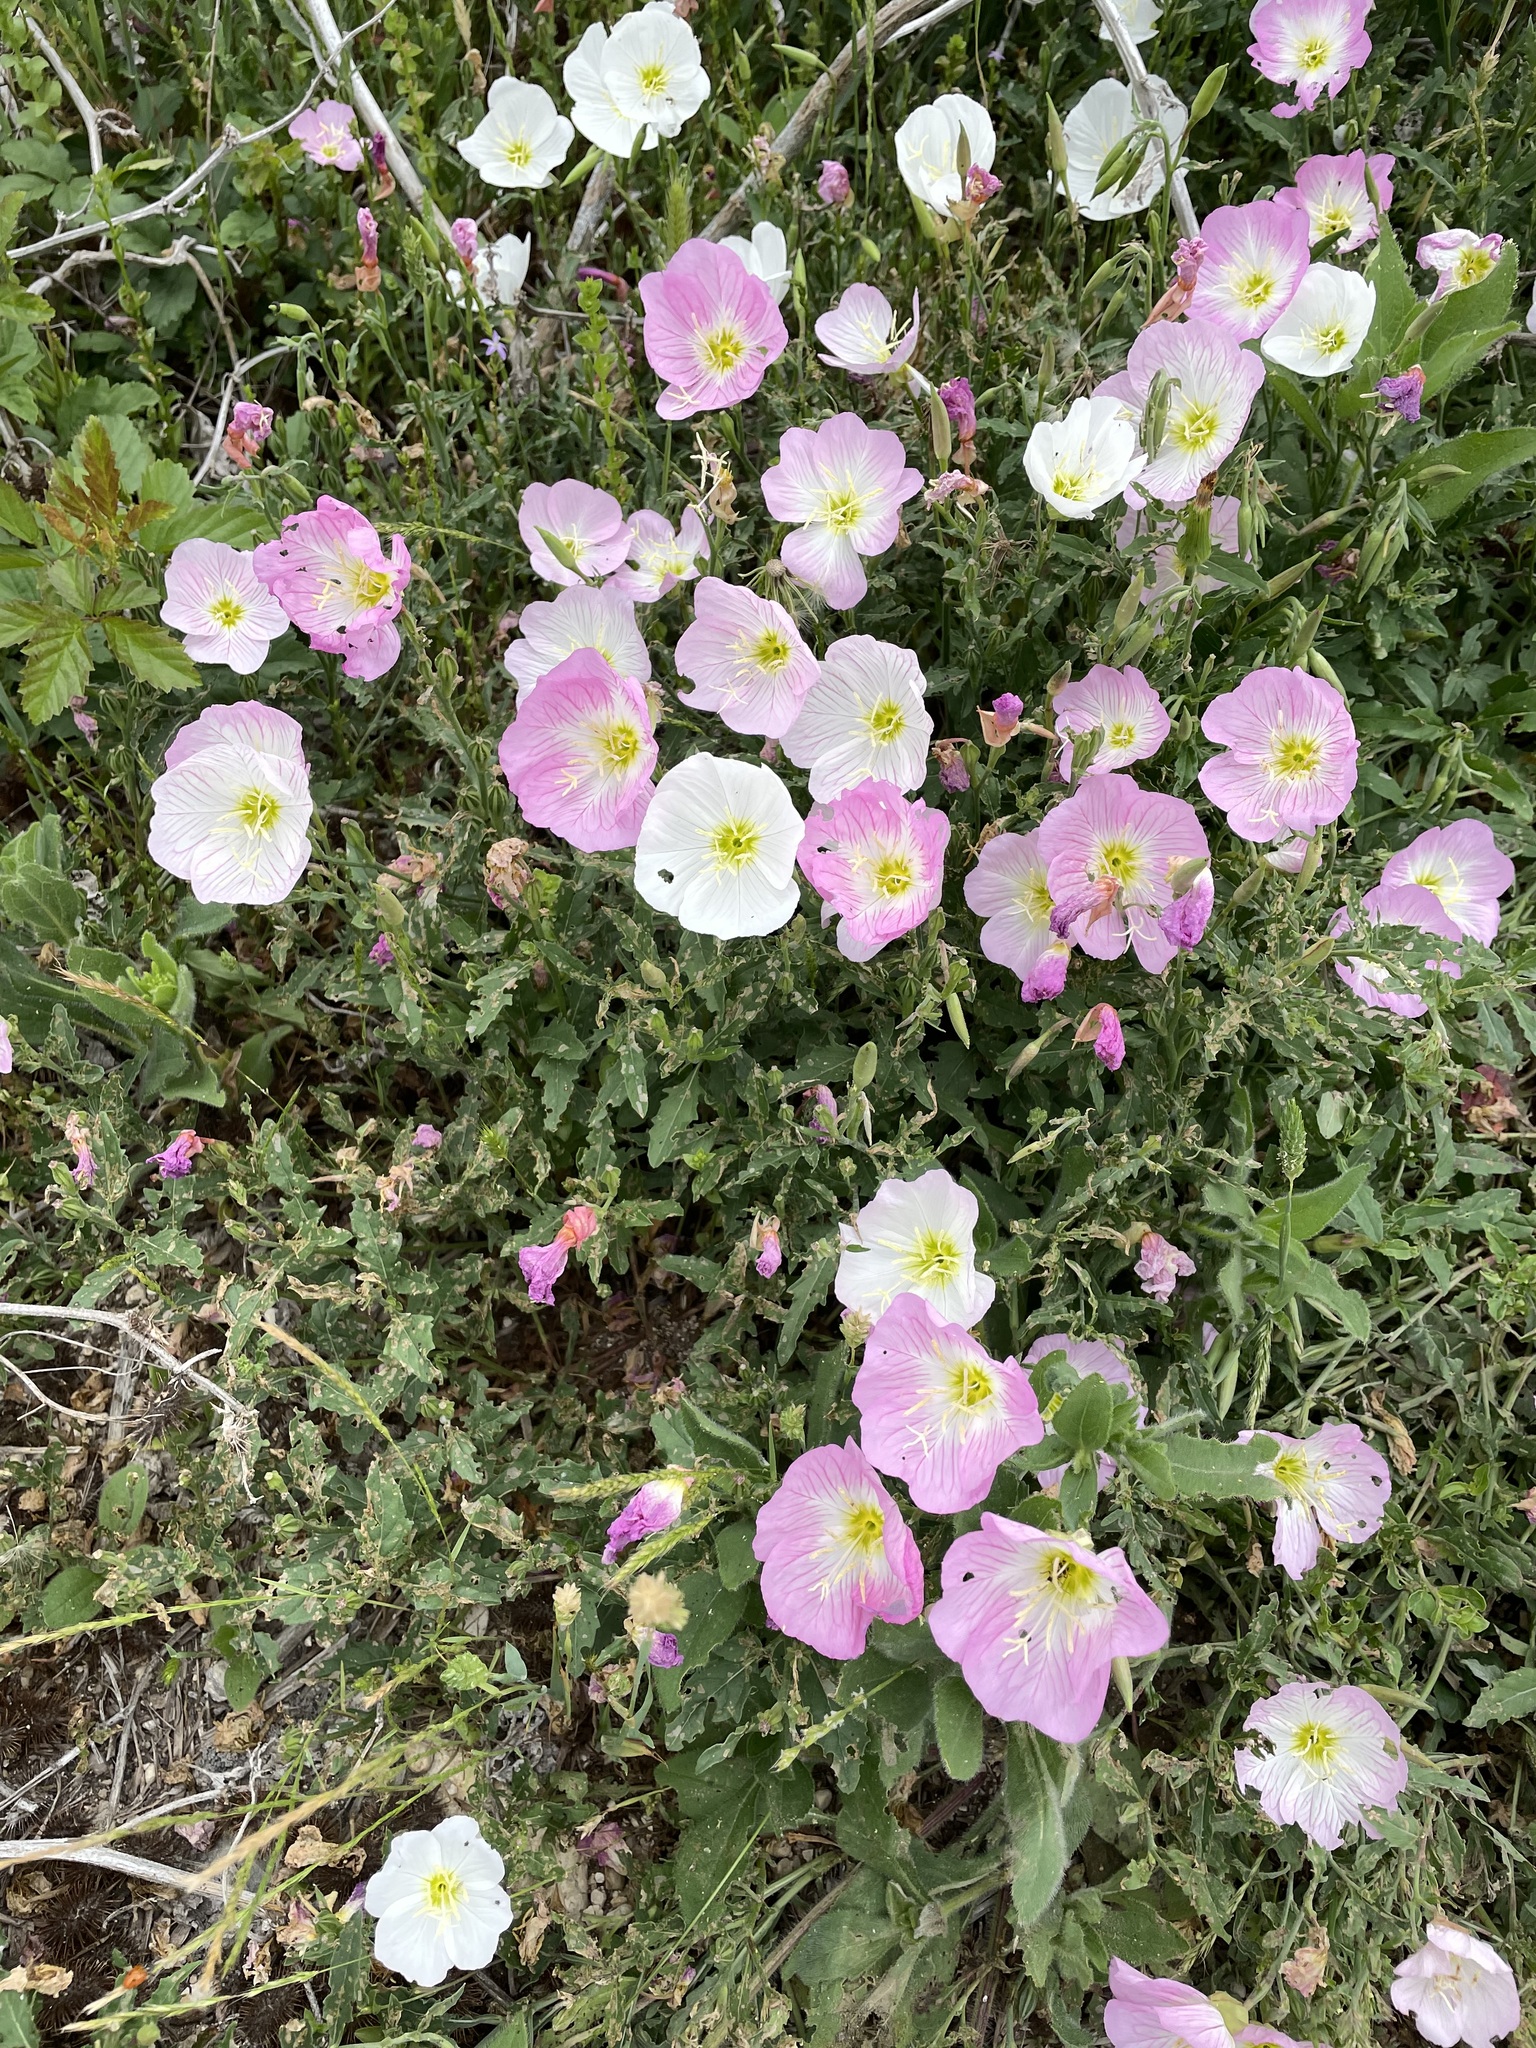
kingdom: Plantae
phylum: Tracheophyta
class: Magnoliopsida
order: Myrtales
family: Onagraceae
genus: Oenothera
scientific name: Oenothera speciosa
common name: White evening-primrose
